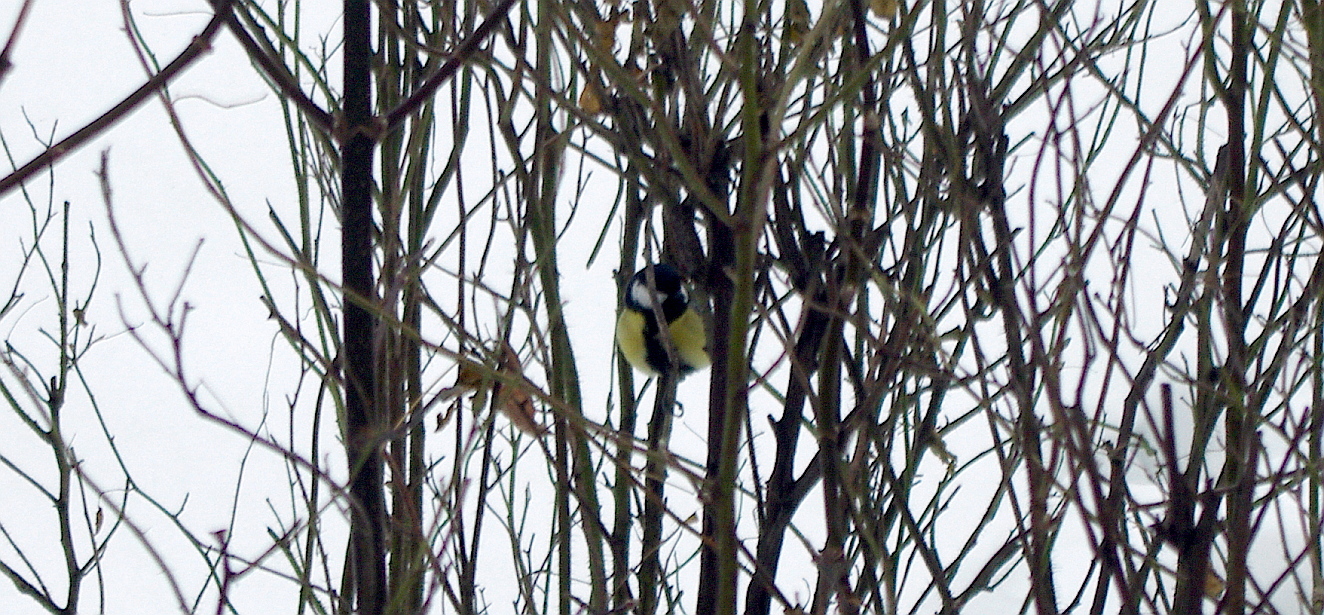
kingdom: Animalia
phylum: Chordata
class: Aves
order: Passeriformes
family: Paridae
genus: Parus
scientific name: Parus major
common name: Great tit
